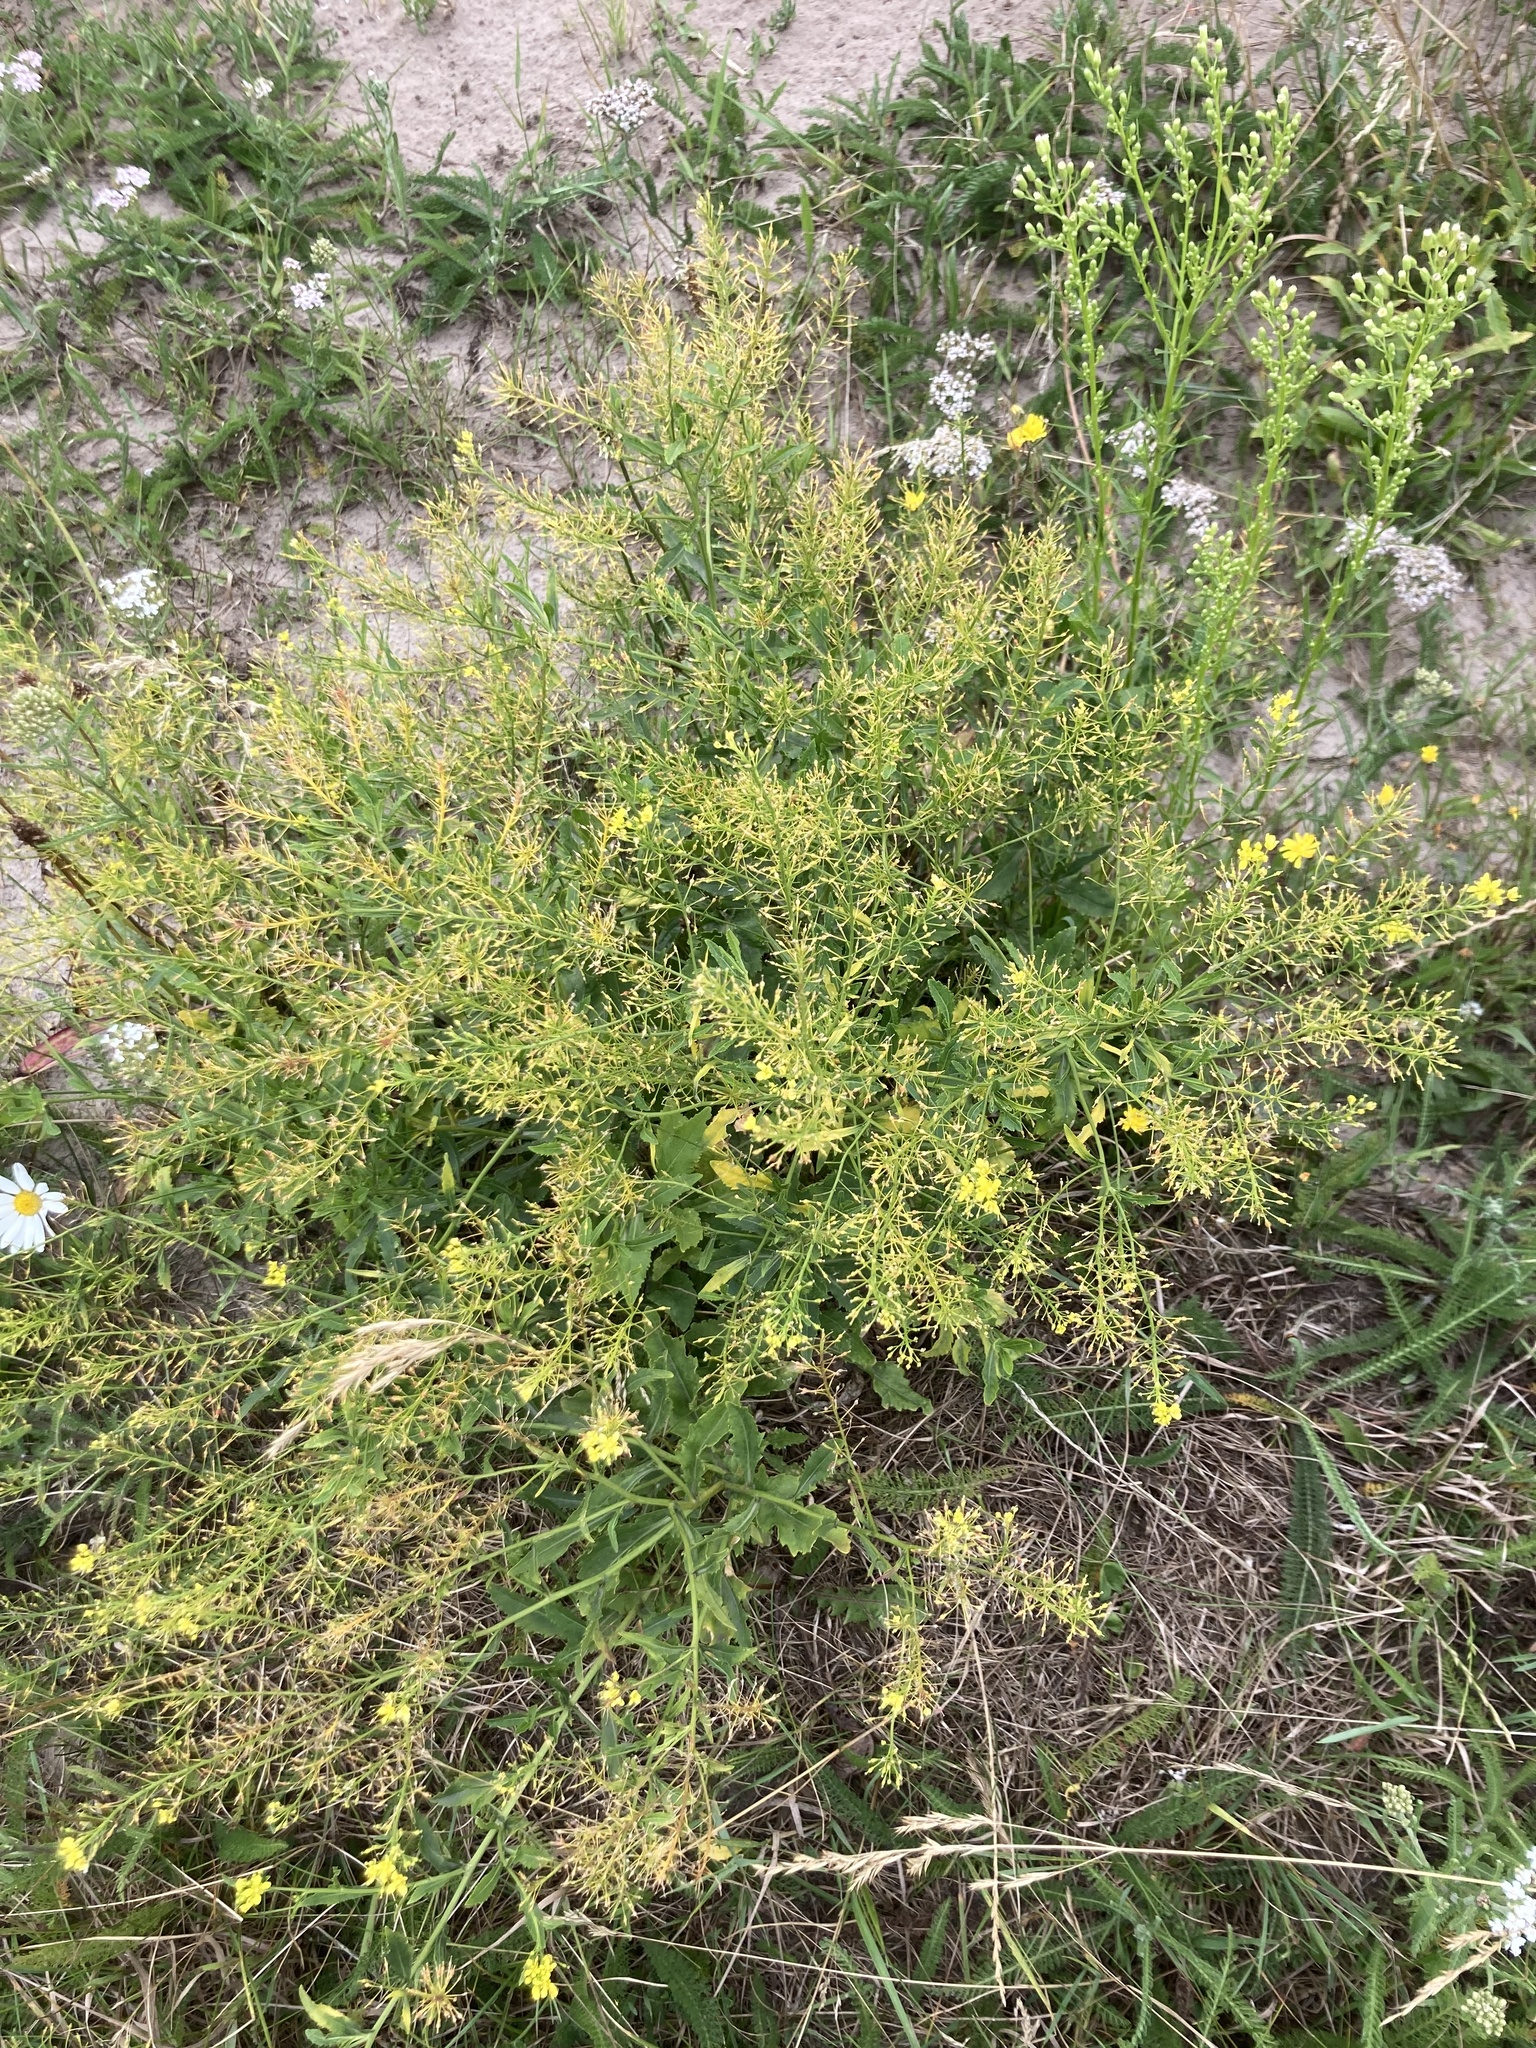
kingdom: Plantae
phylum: Tracheophyta
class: Magnoliopsida
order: Brassicales
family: Brassicaceae
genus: Rorippa
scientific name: Rorippa austriaca
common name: Austrian yellow-cress
